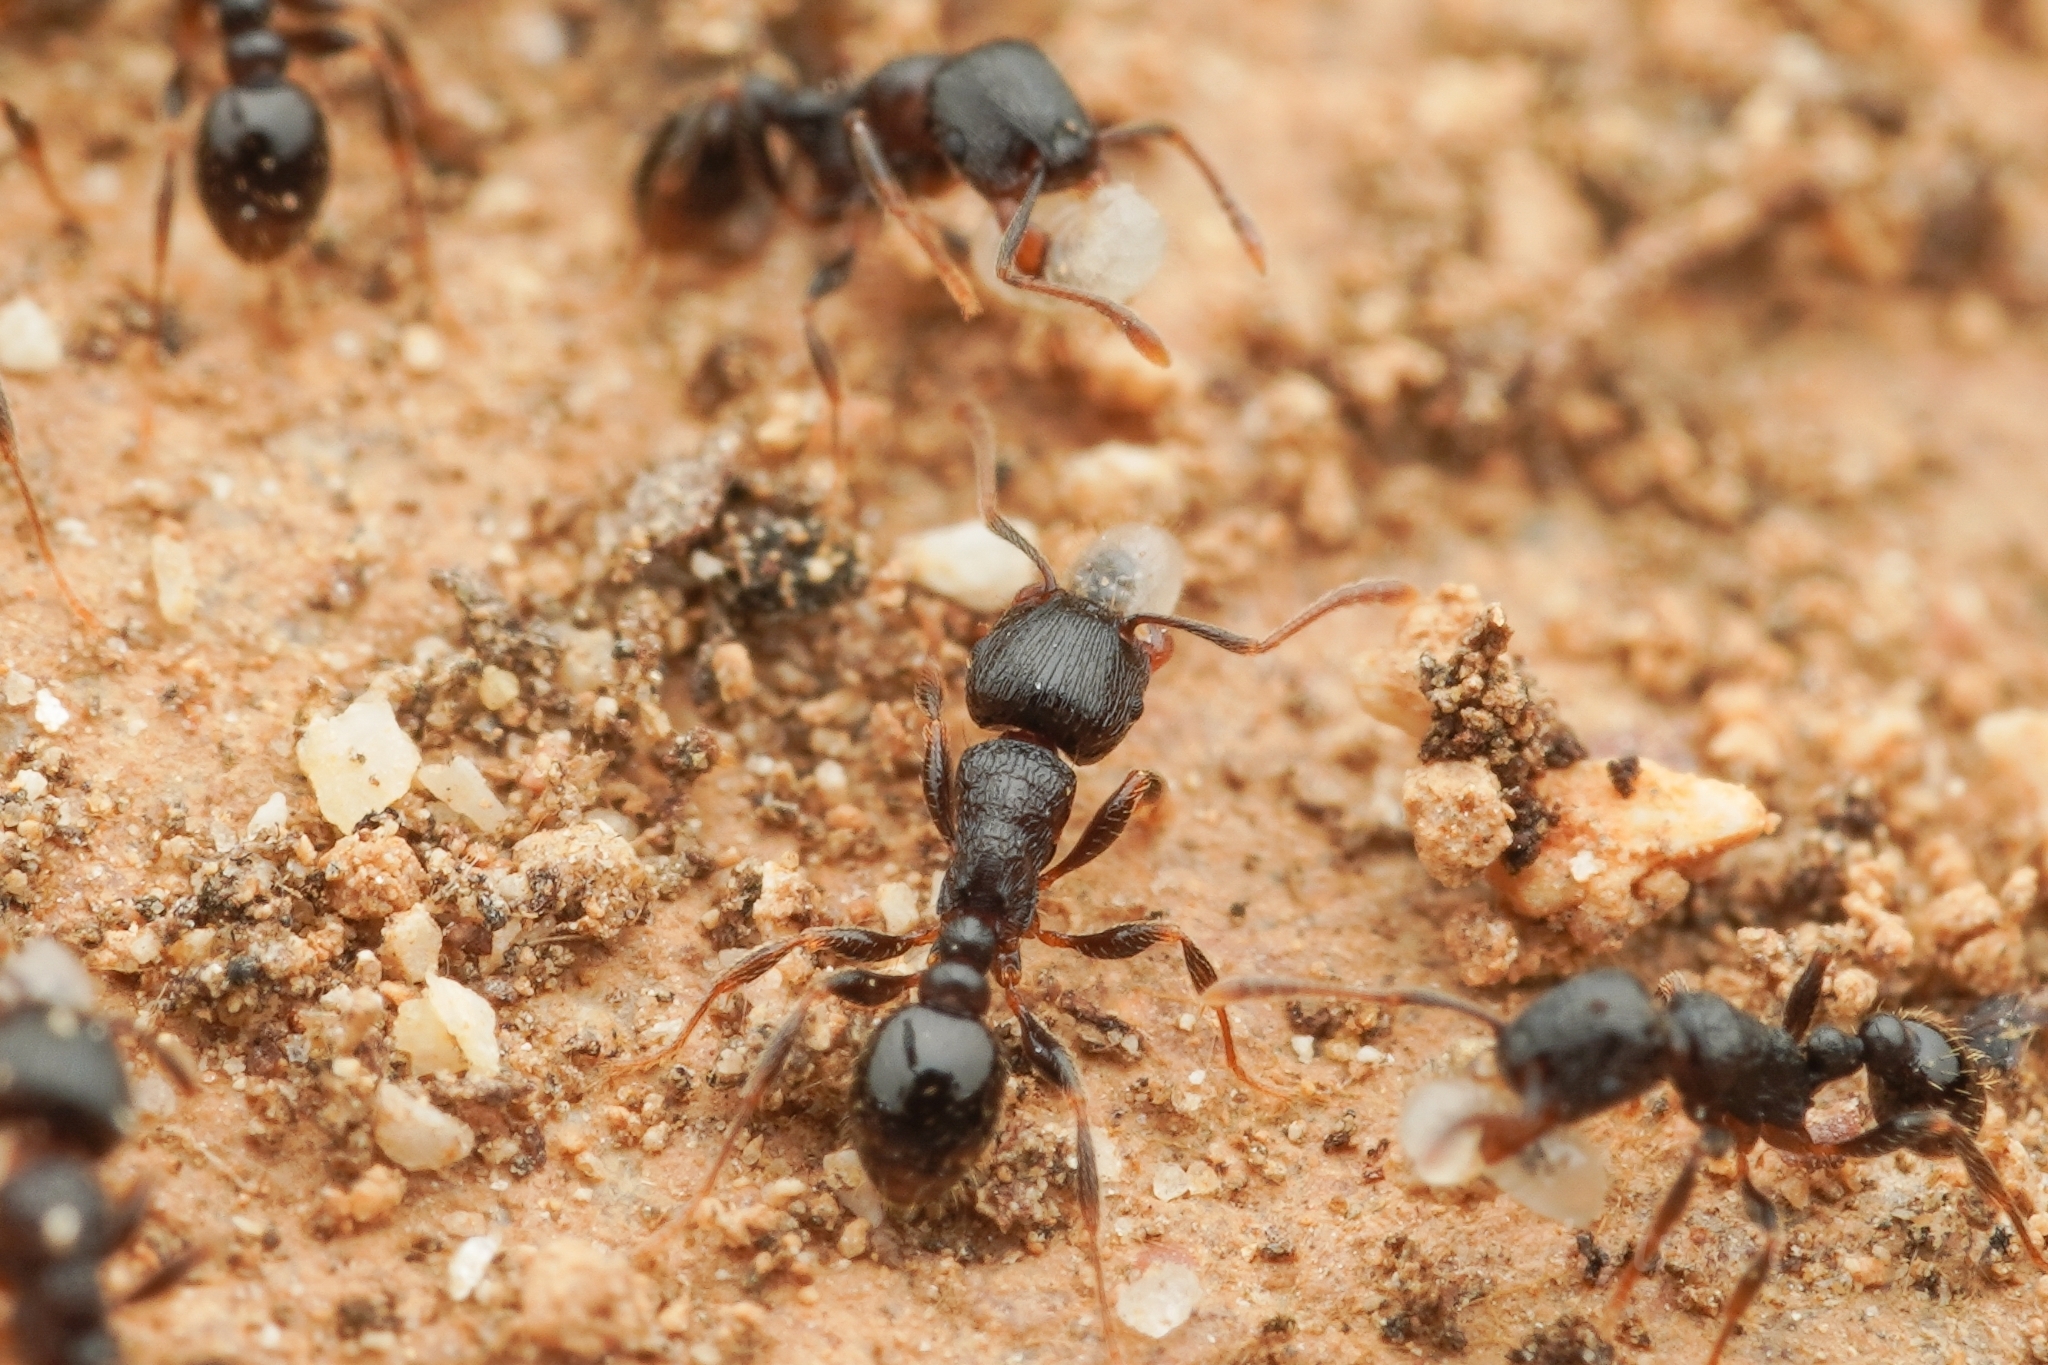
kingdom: Animalia
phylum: Arthropoda
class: Insecta
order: Hymenoptera
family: Formicidae
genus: Tetramorium
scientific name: Tetramorium tsushimae
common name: Ant
